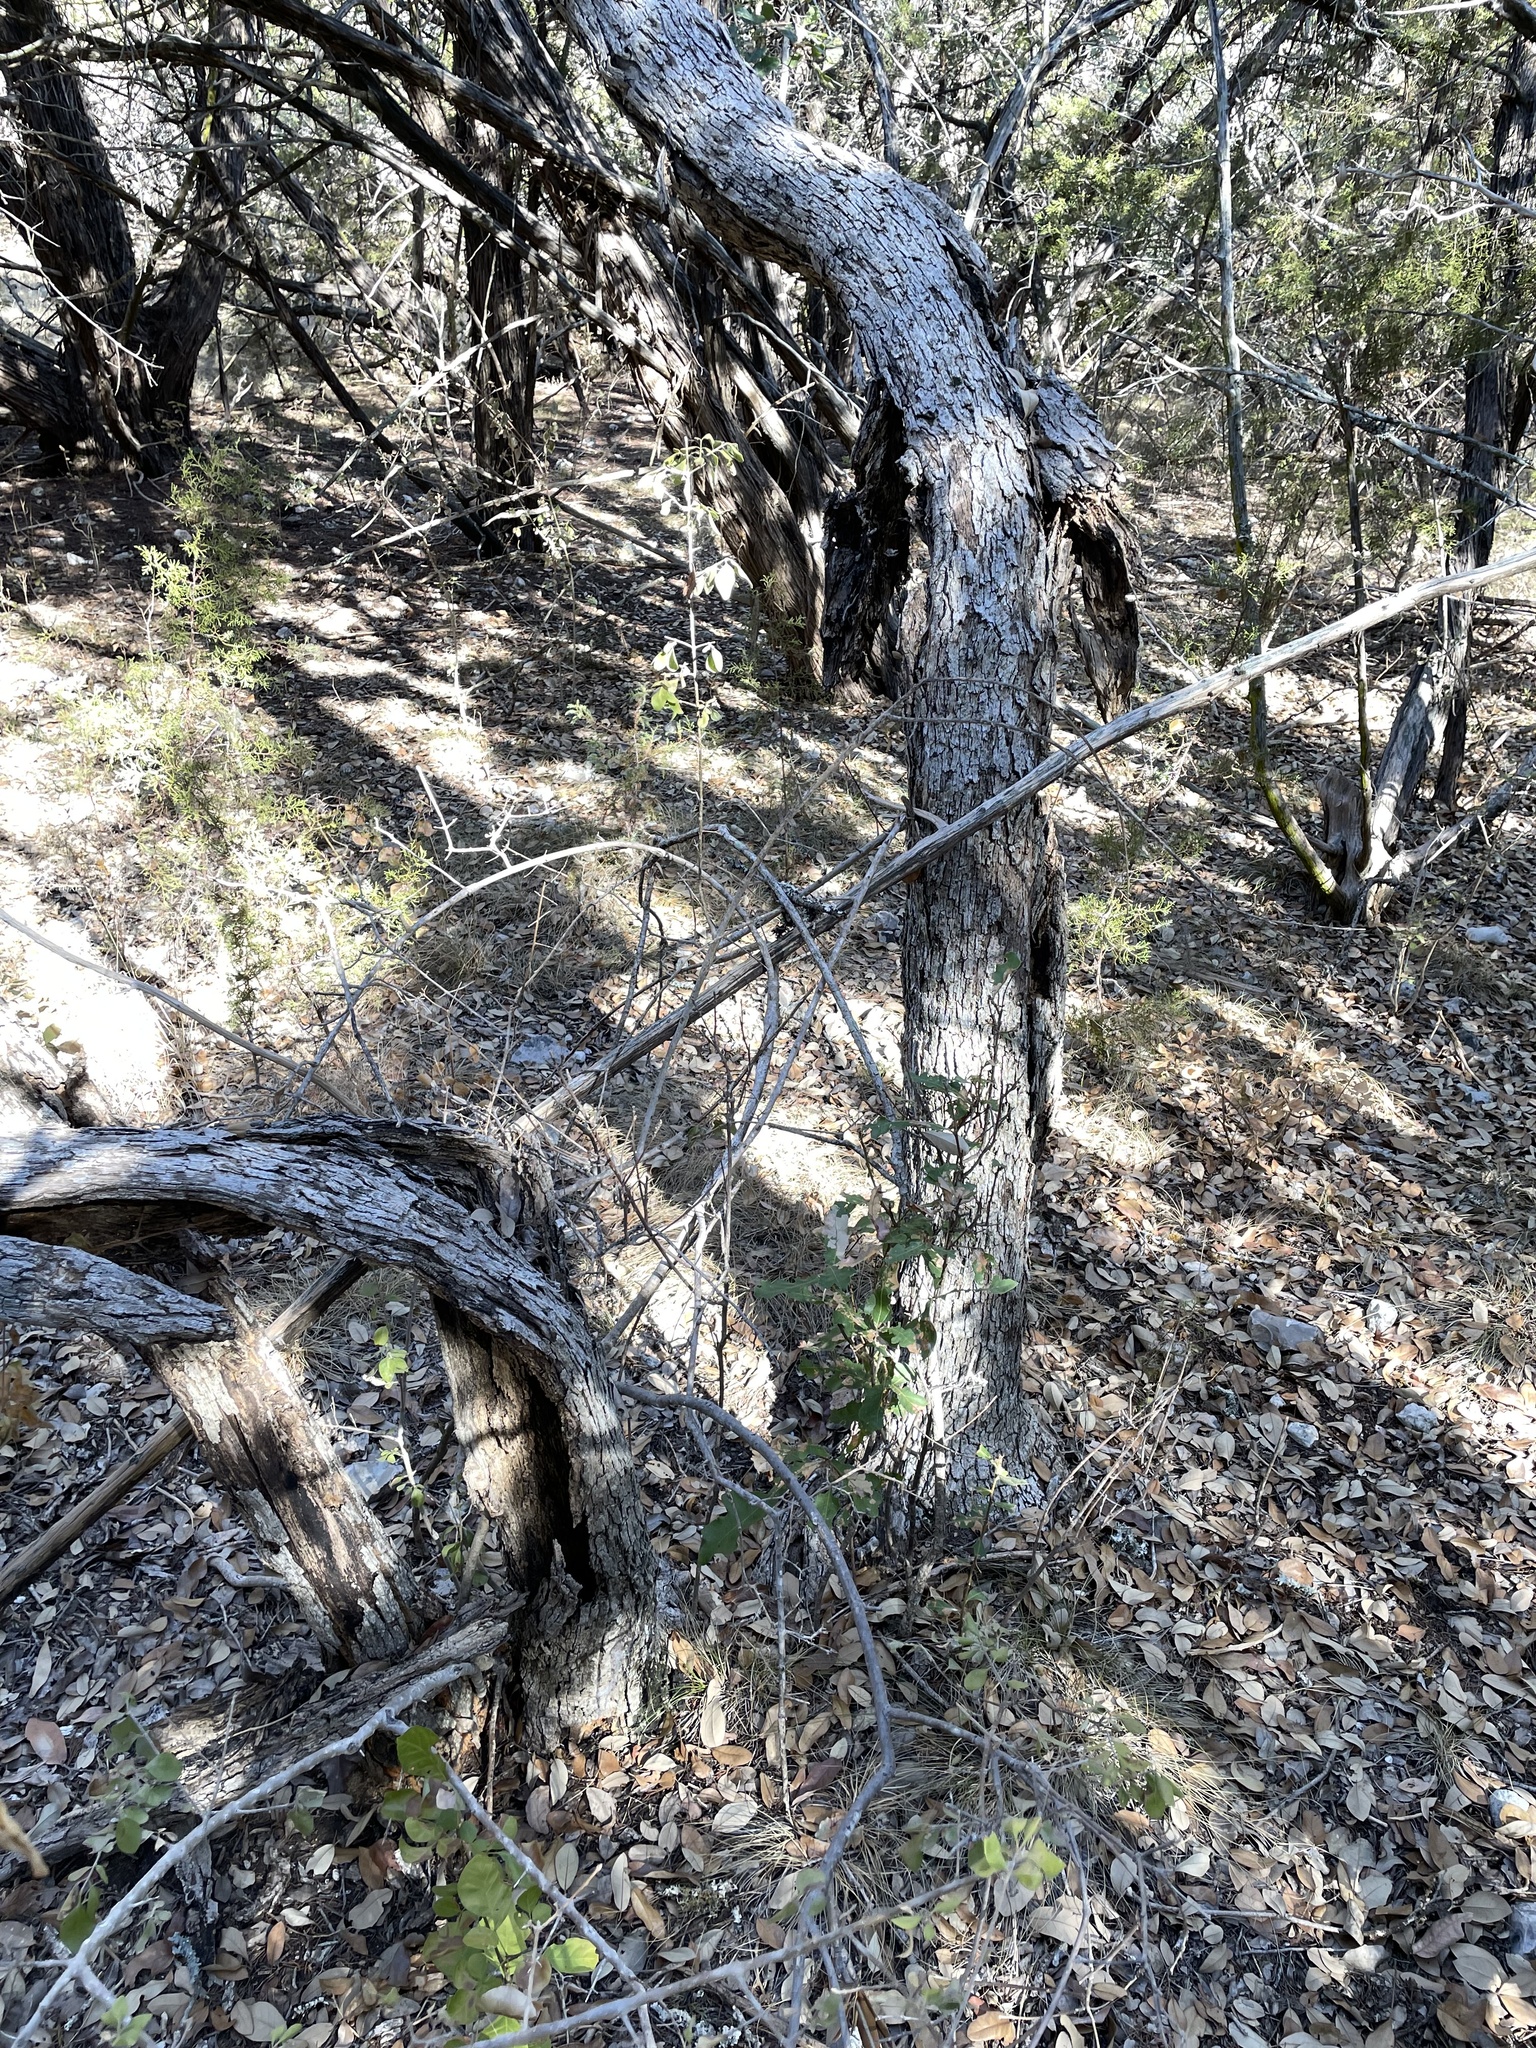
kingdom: Plantae
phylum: Tracheophyta
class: Magnoliopsida
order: Fagales
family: Fagaceae
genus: Quercus
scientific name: Quercus sinuata
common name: Durand oak
